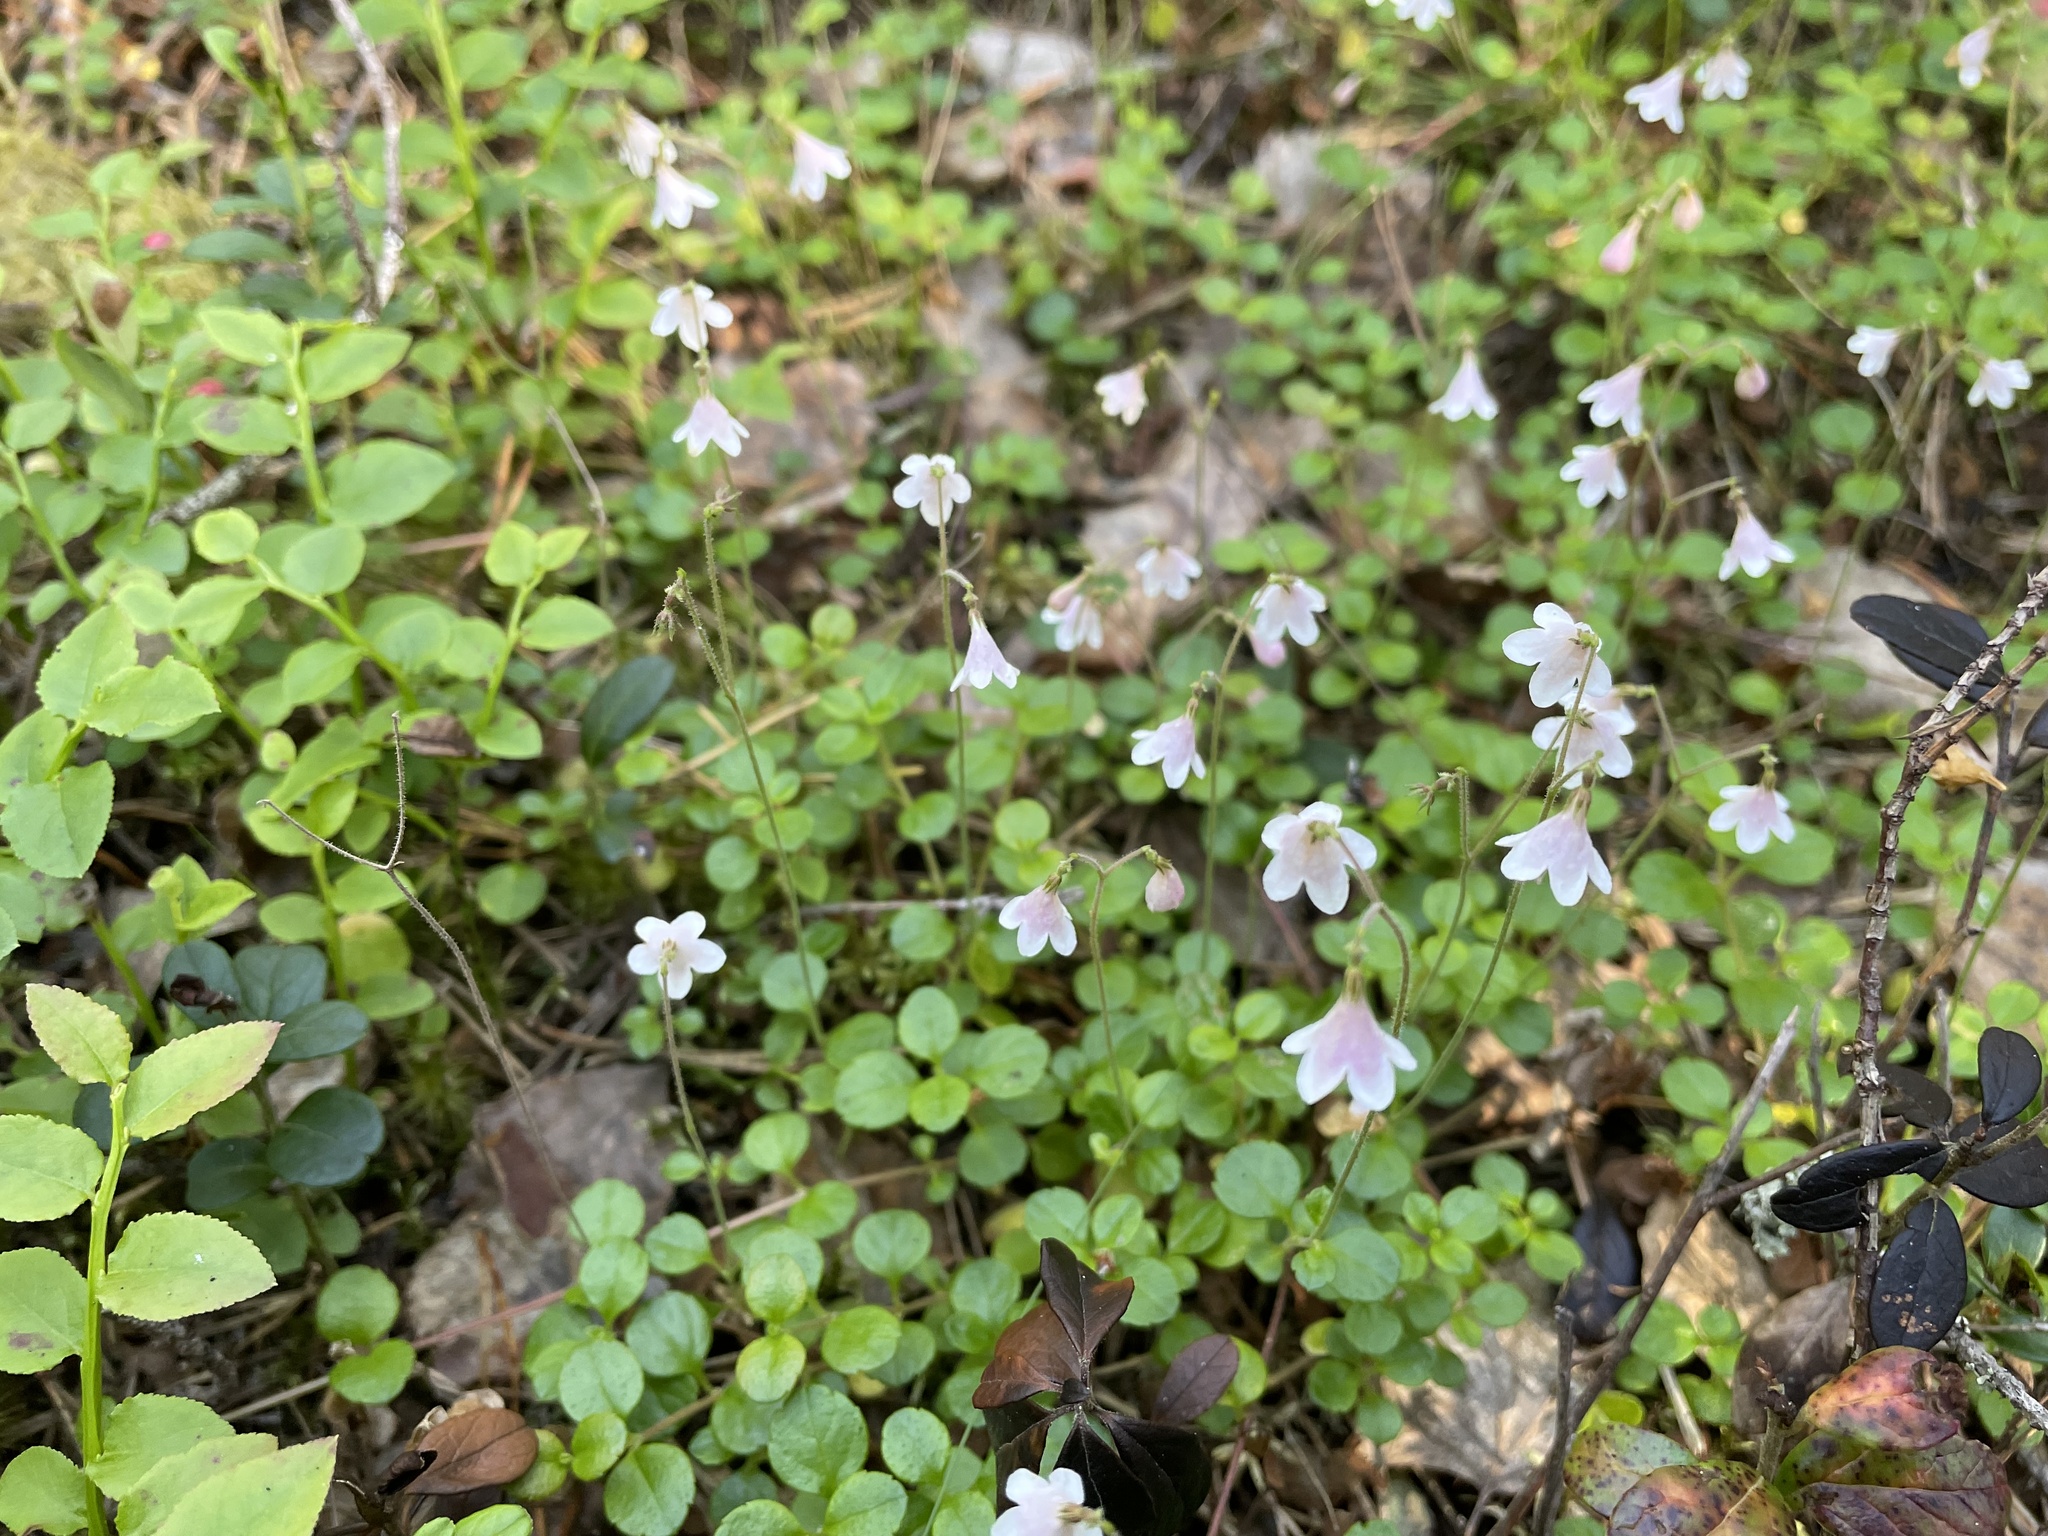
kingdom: Plantae
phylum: Tracheophyta
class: Magnoliopsida
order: Dipsacales
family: Caprifoliaceae
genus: Linnaea
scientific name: Linnaea borealis
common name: Twinflower
